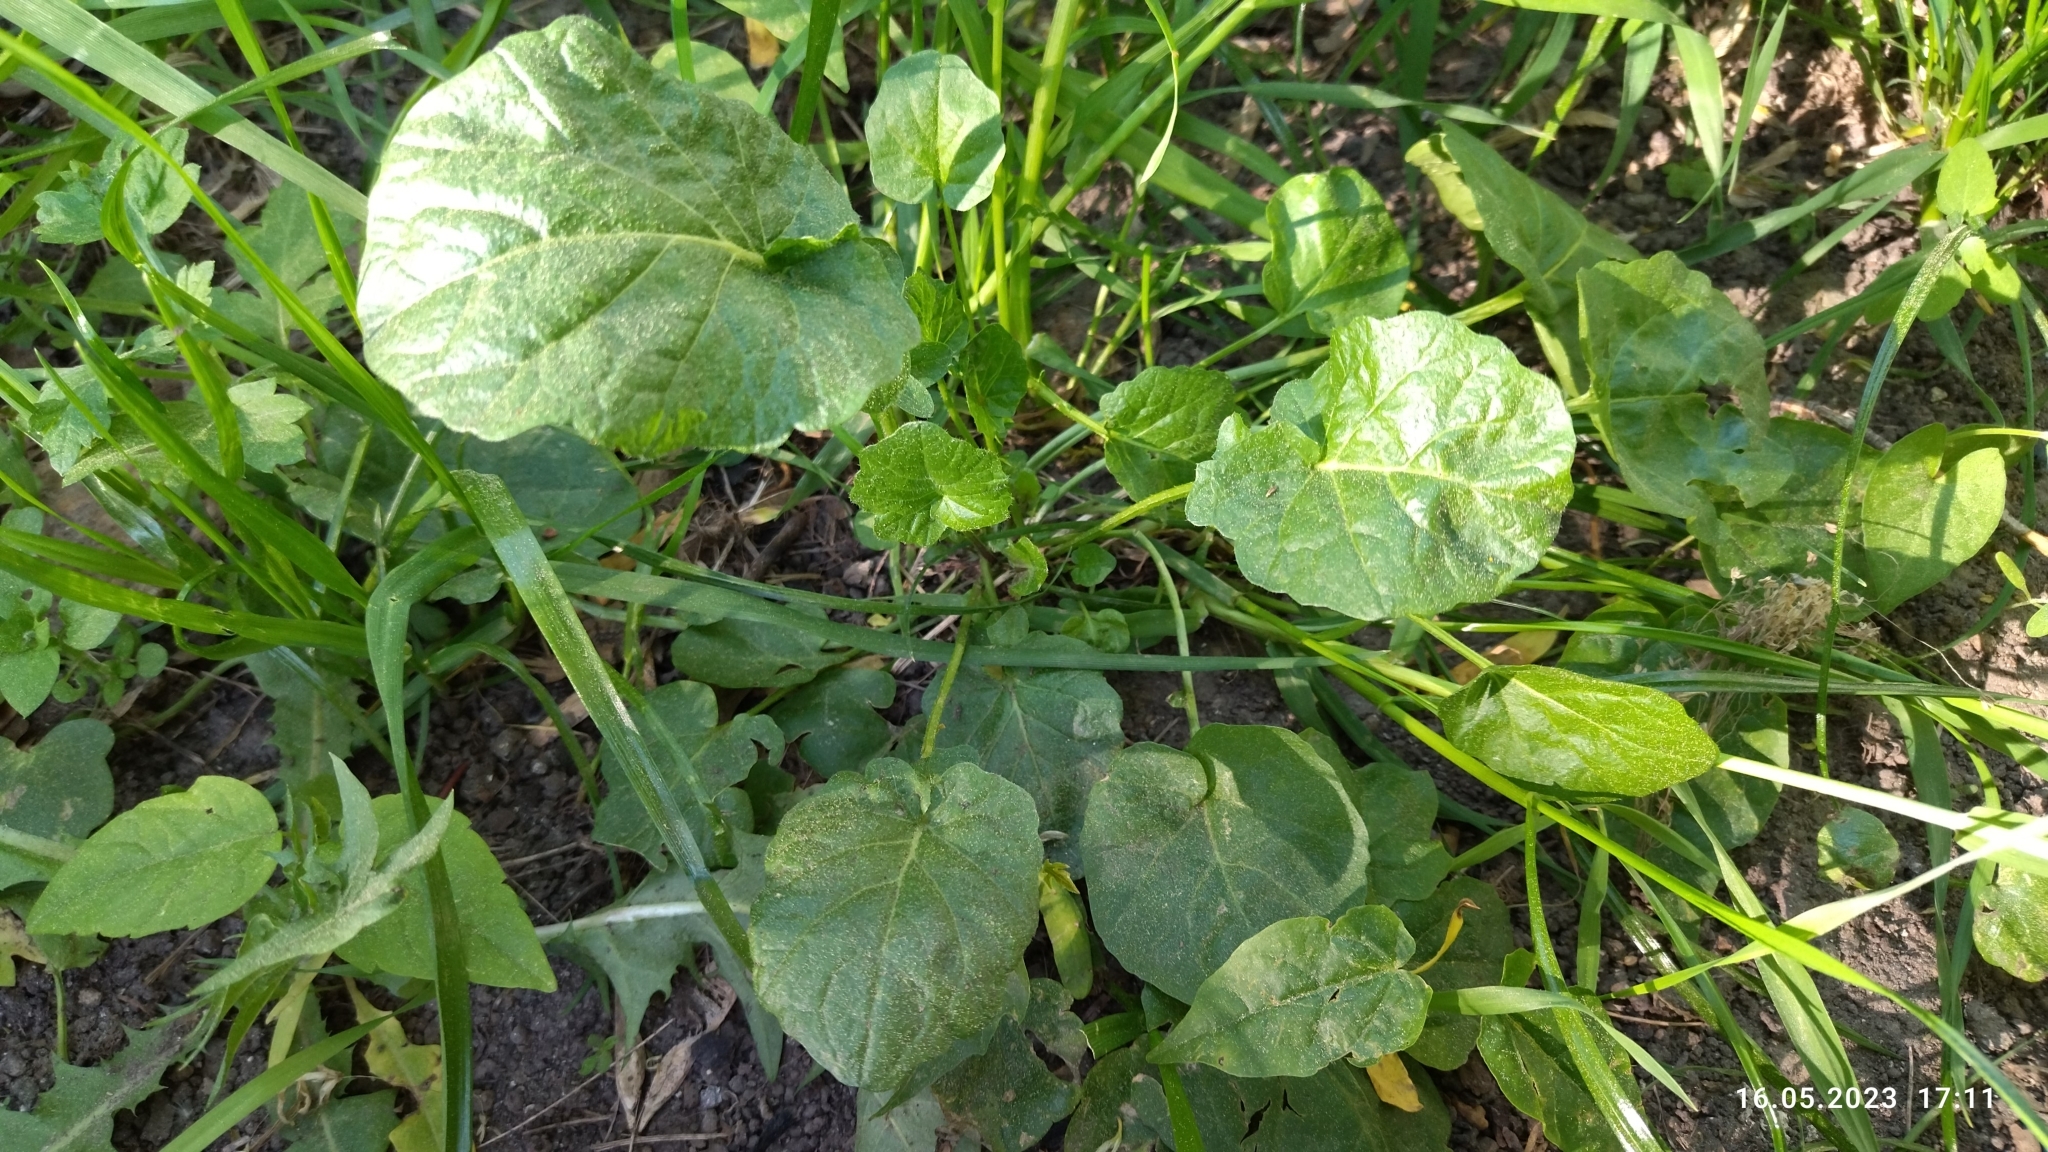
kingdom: Plantae
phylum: Tracheophyta
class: Magnoliopsida
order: Brassicales
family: Brassicaceae
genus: Barbarea
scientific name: Barbarea vulgaris
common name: Cressy-greens
